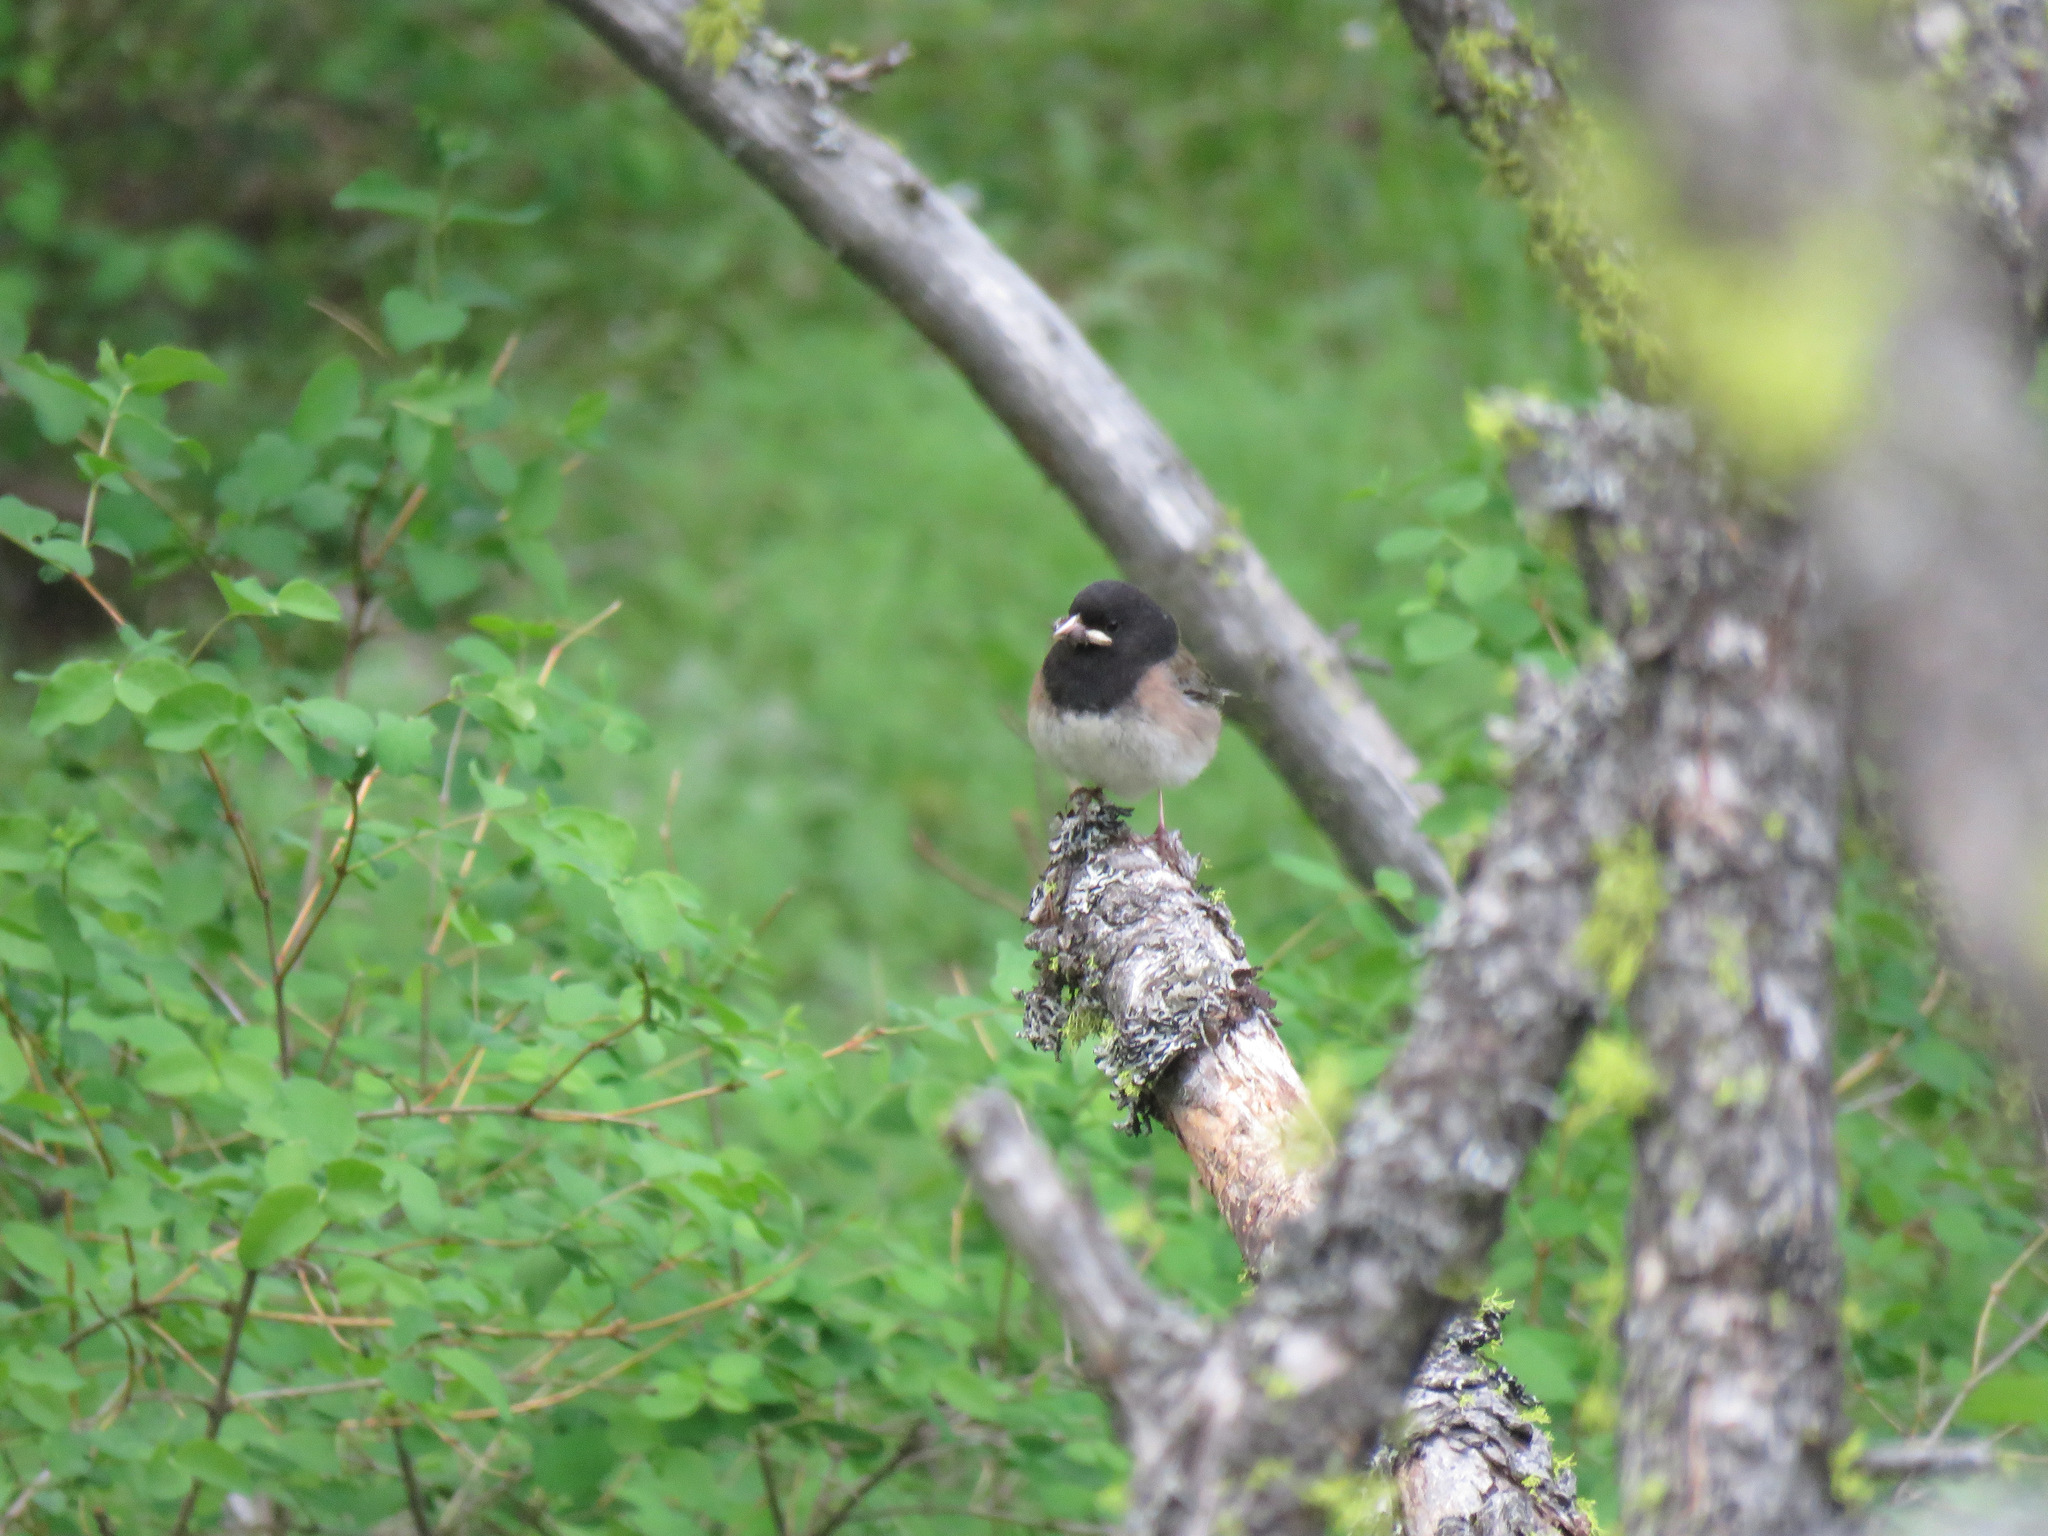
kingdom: Animalia
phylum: Chordata
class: Aves
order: Passeriformes
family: Passerellidae
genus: Junco
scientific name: Junco hyemalis
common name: Dark-eyed junco
